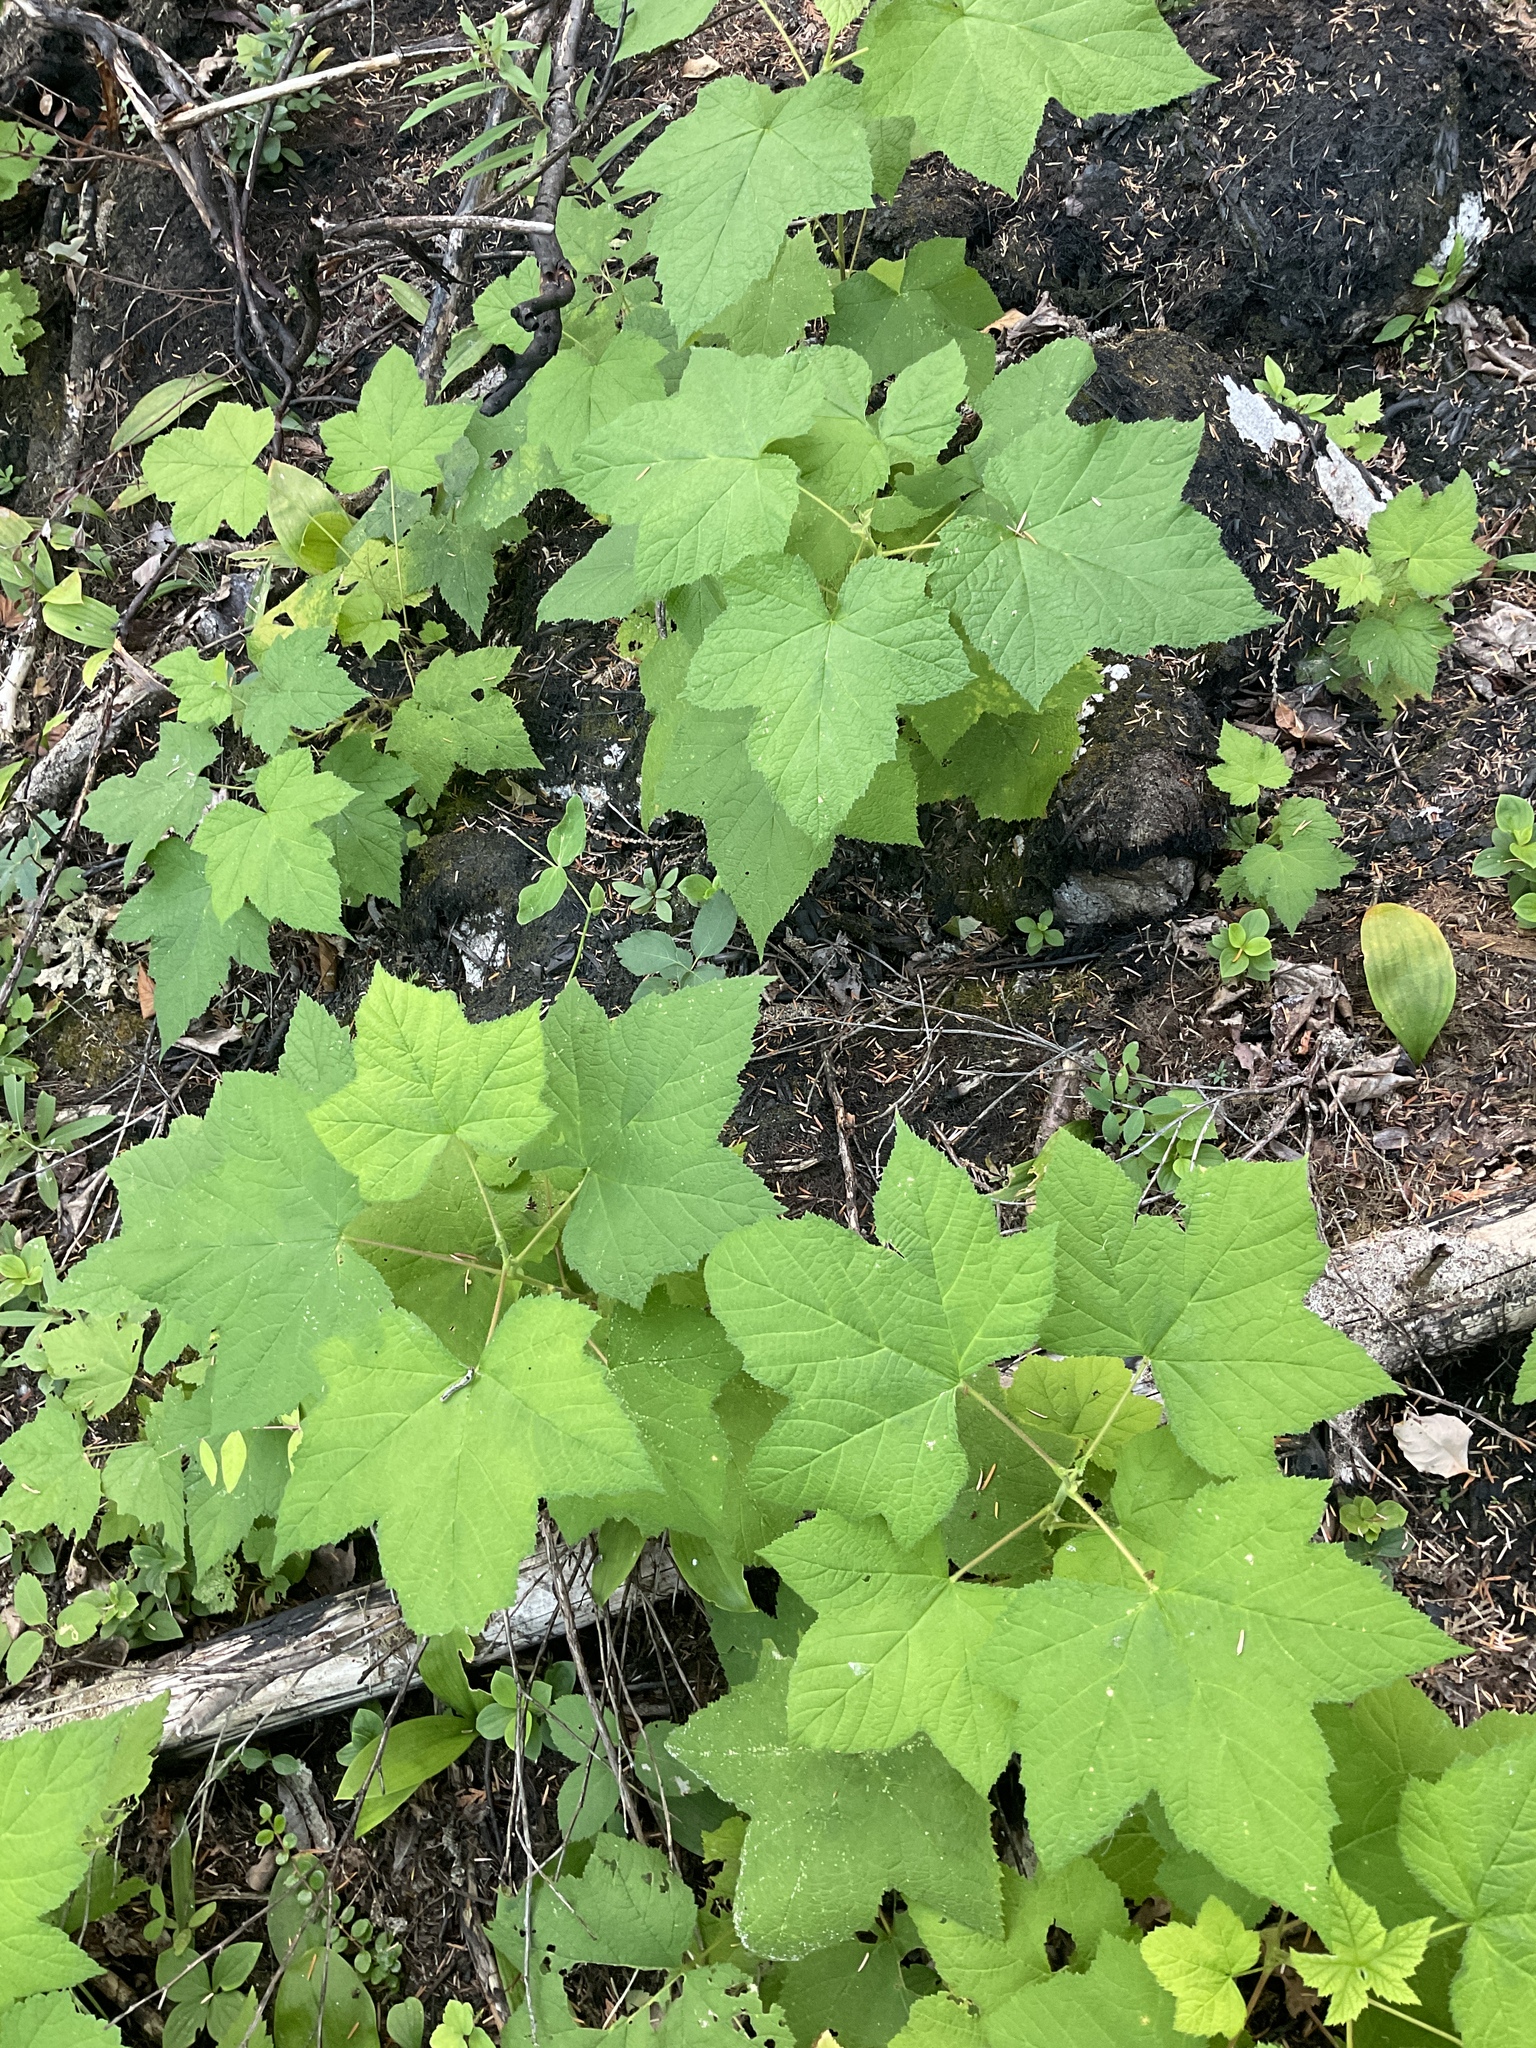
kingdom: Plantae
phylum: Tracheophyta
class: Magnoliopsida
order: Rosales
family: Rosaceae
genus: Rubus
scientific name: Rubus parviflorus
